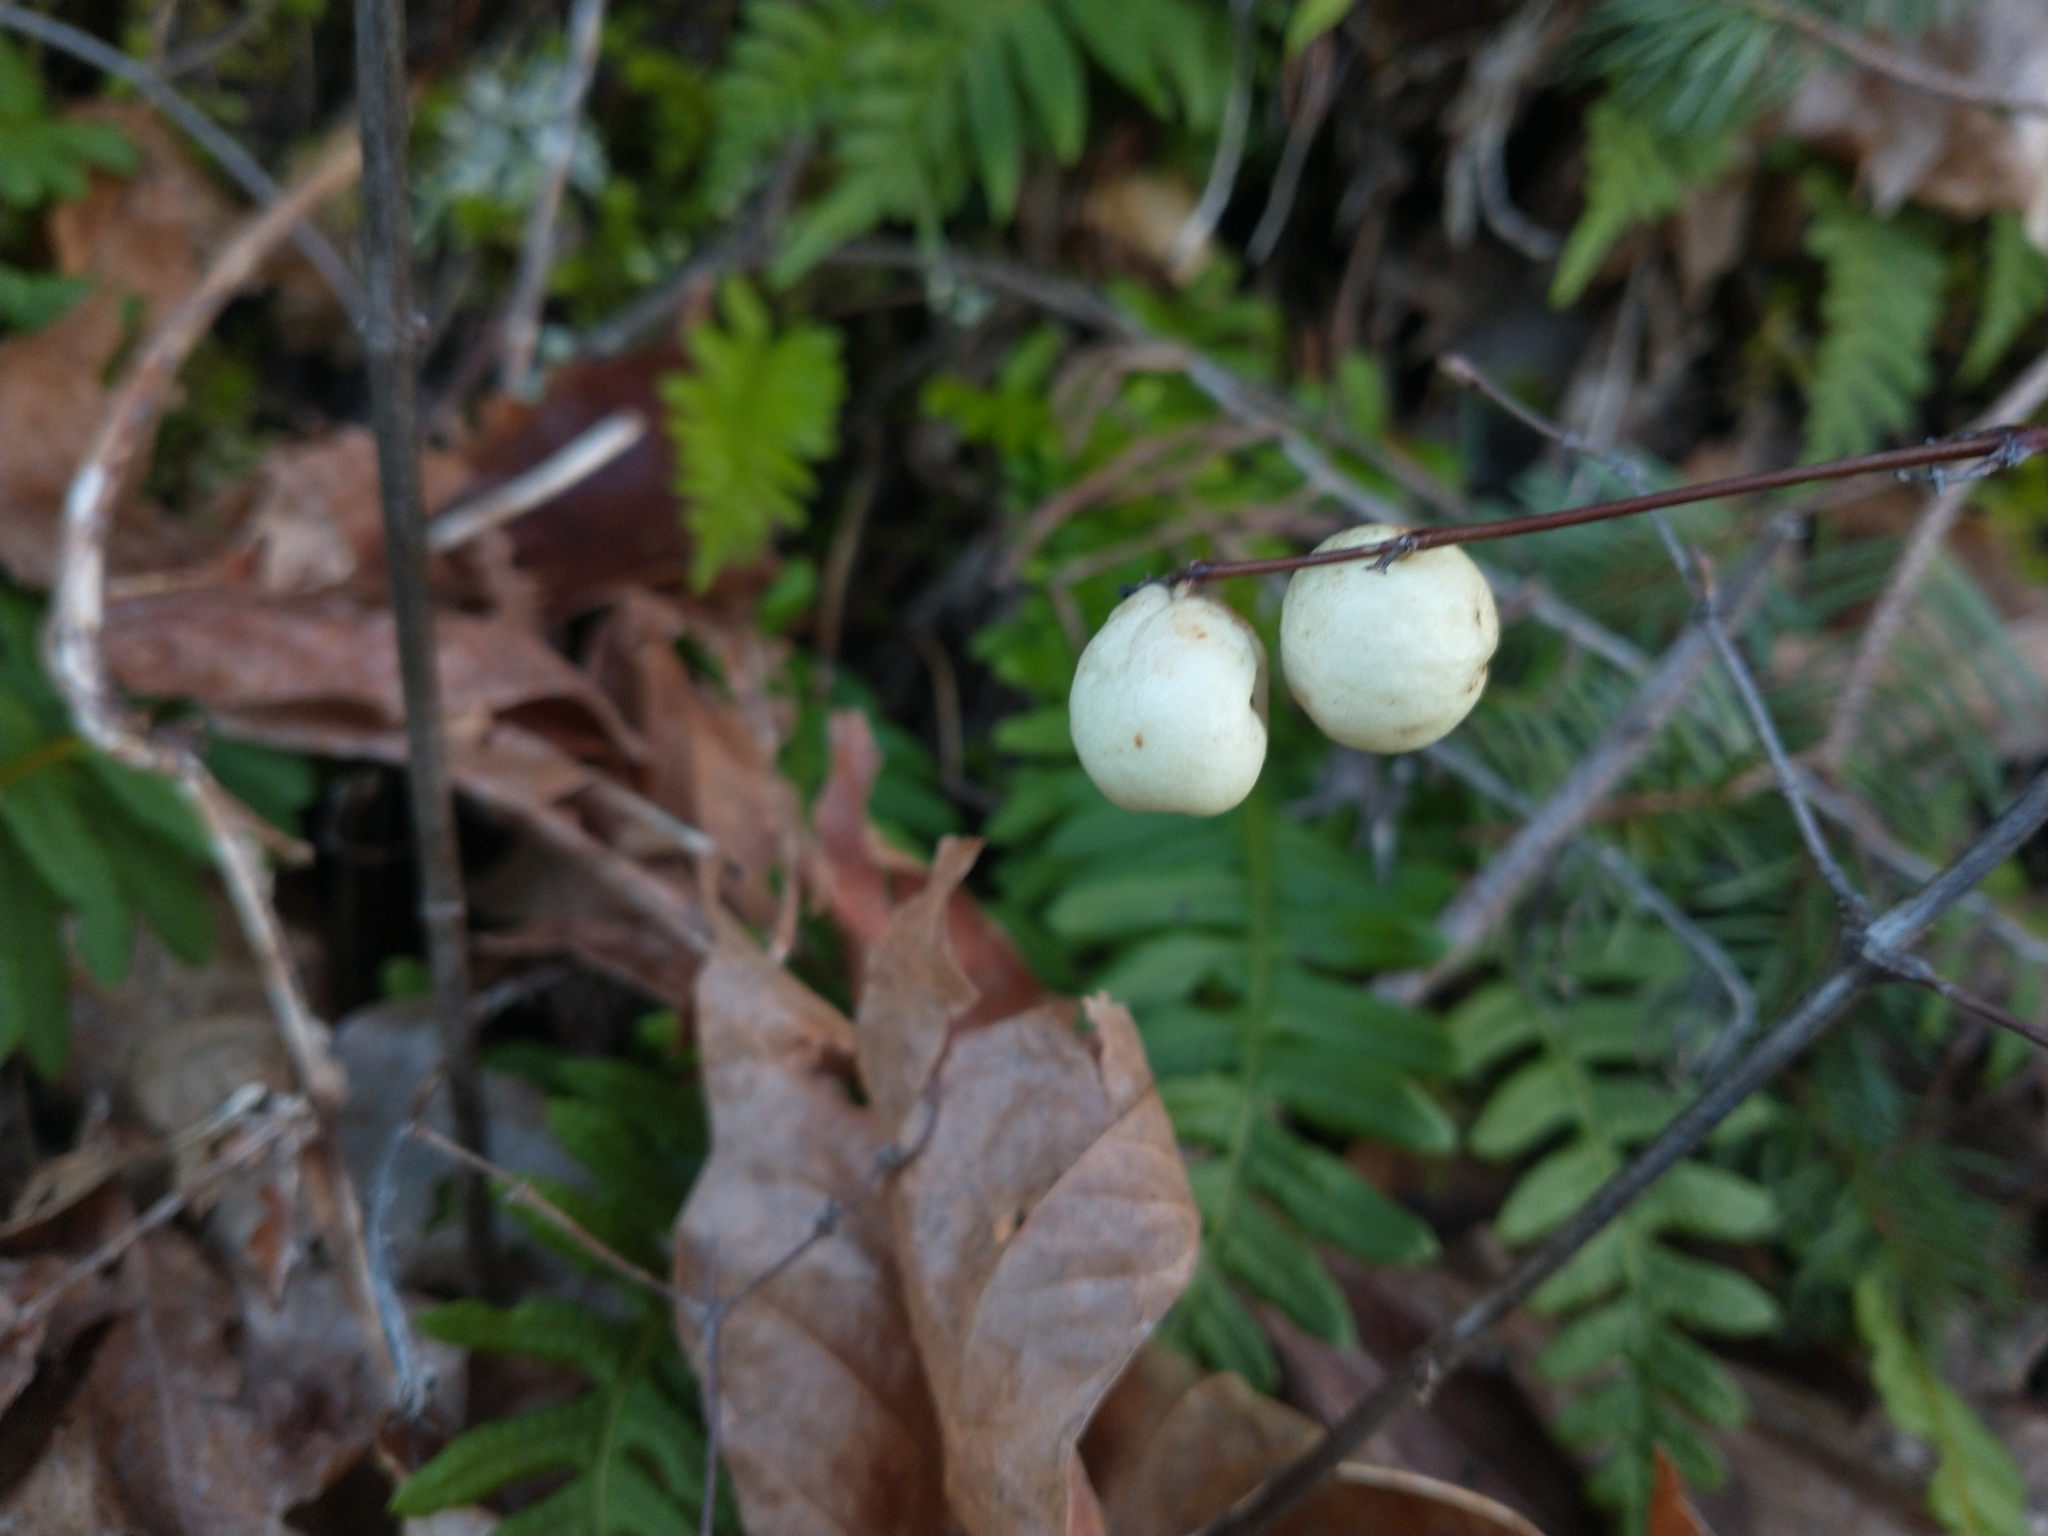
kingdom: Plantae
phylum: Tracheophyta
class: Magnoliopsida
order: Dipsacales
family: Caprifoliaceae
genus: Symphoricarpos
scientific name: Symphoricarpos albus
